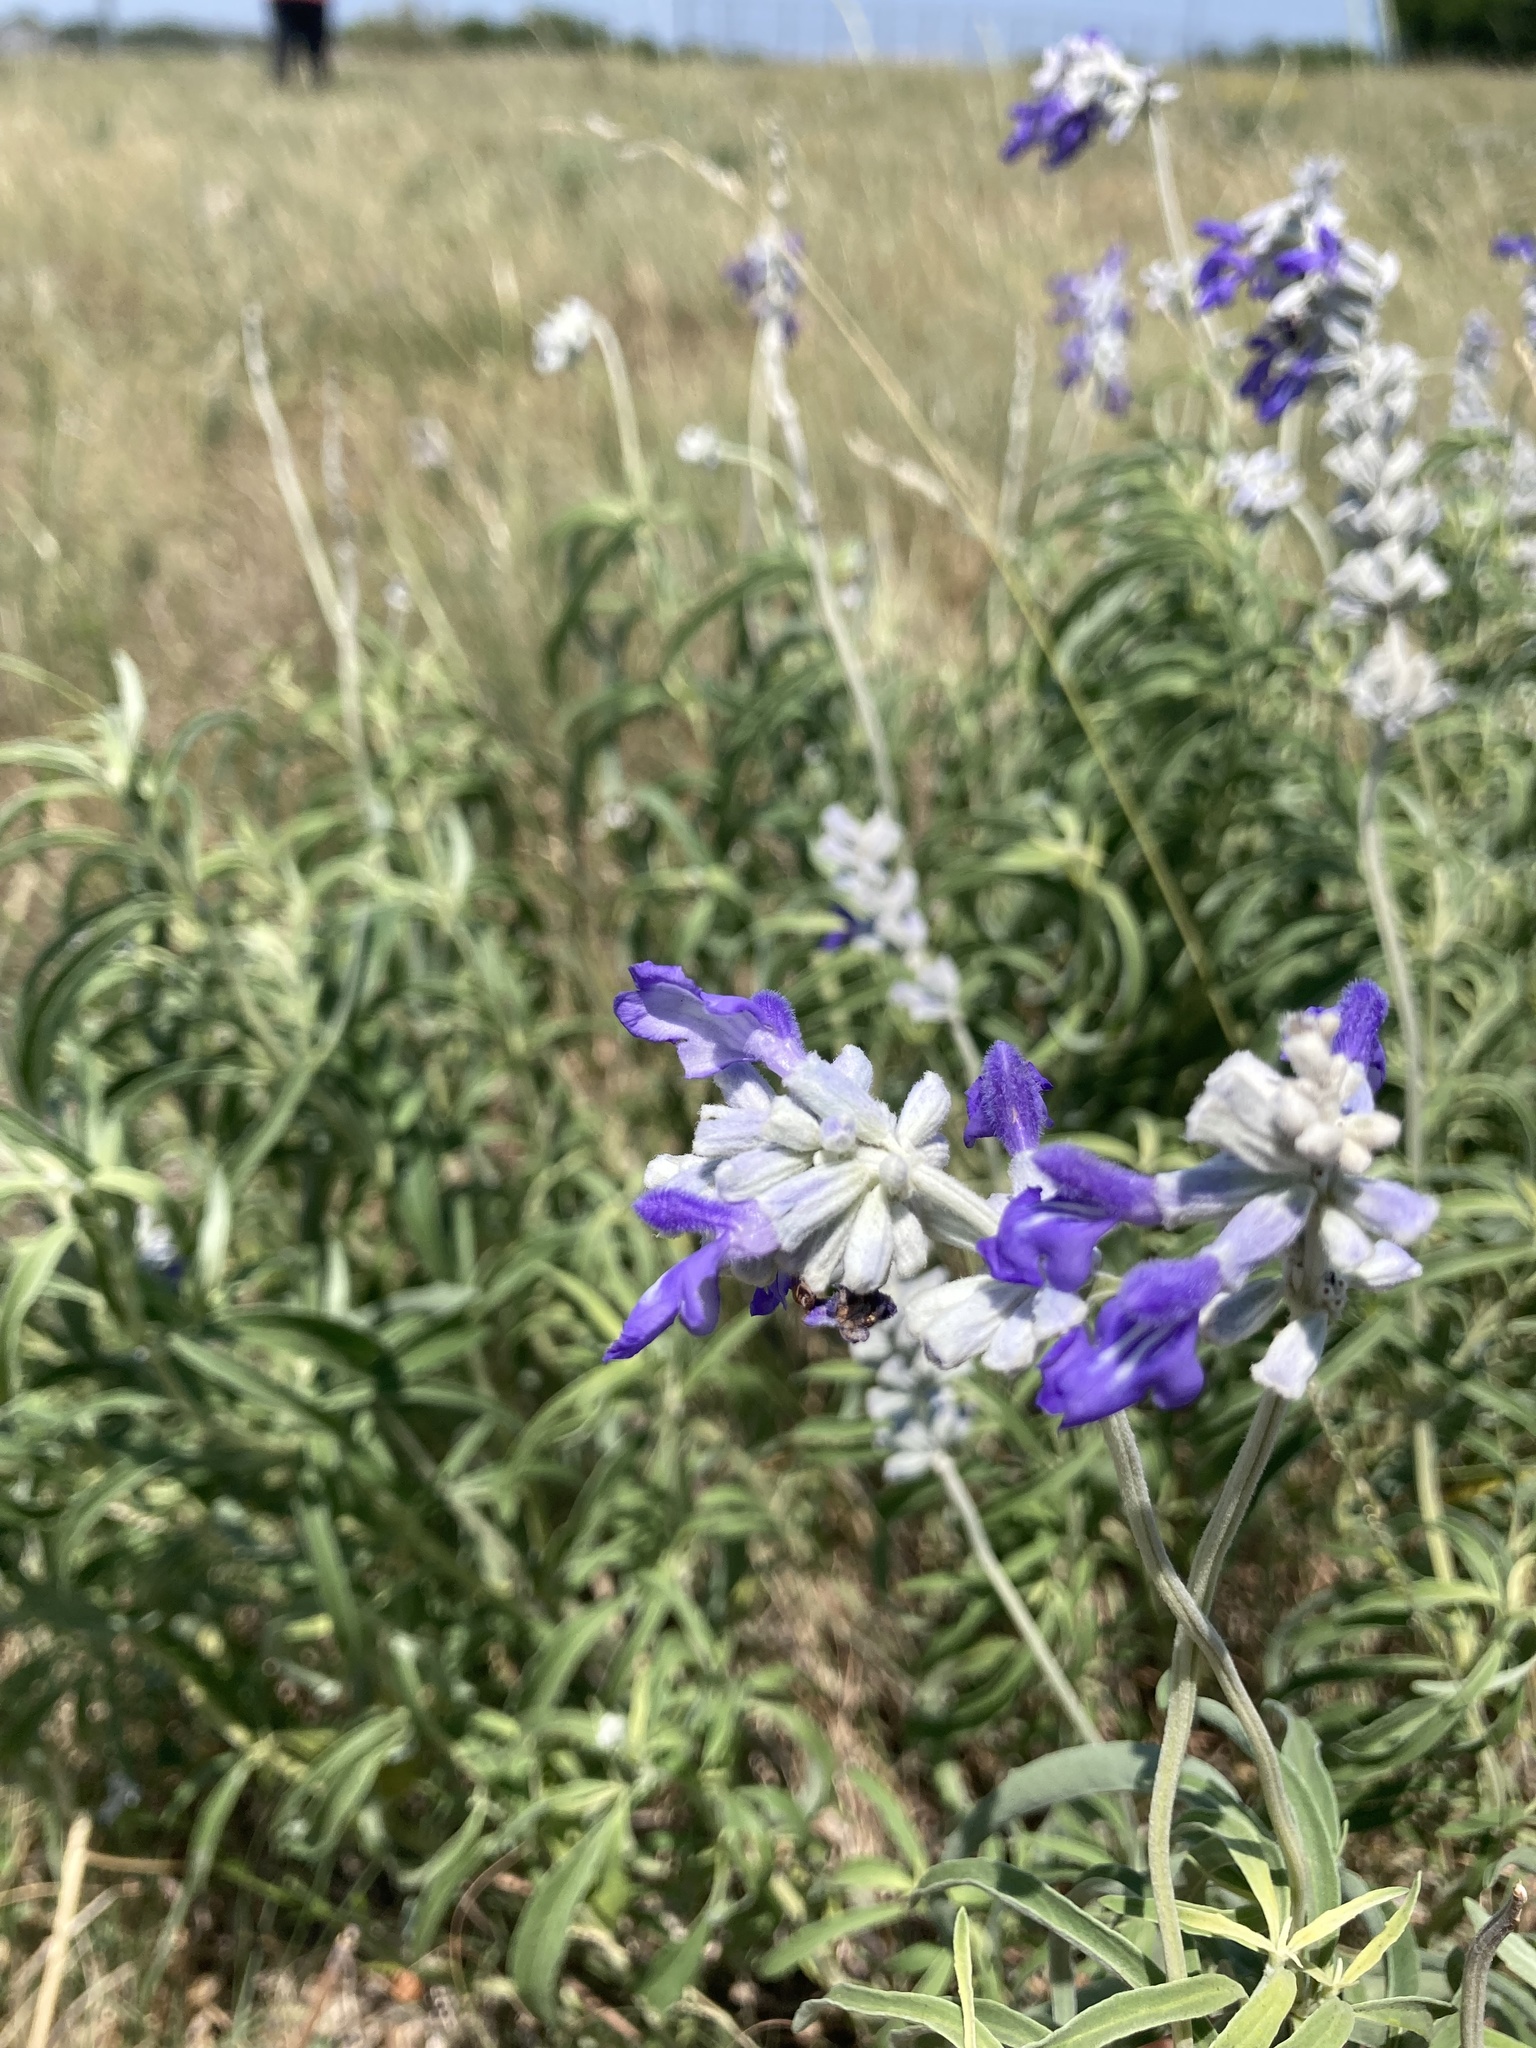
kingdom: Plantae
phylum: Tracheophyta
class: Magnoliopsida
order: Lamiales
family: Lamiaceae
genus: Salvia
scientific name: Salvia farinacea
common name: Mealy sage
